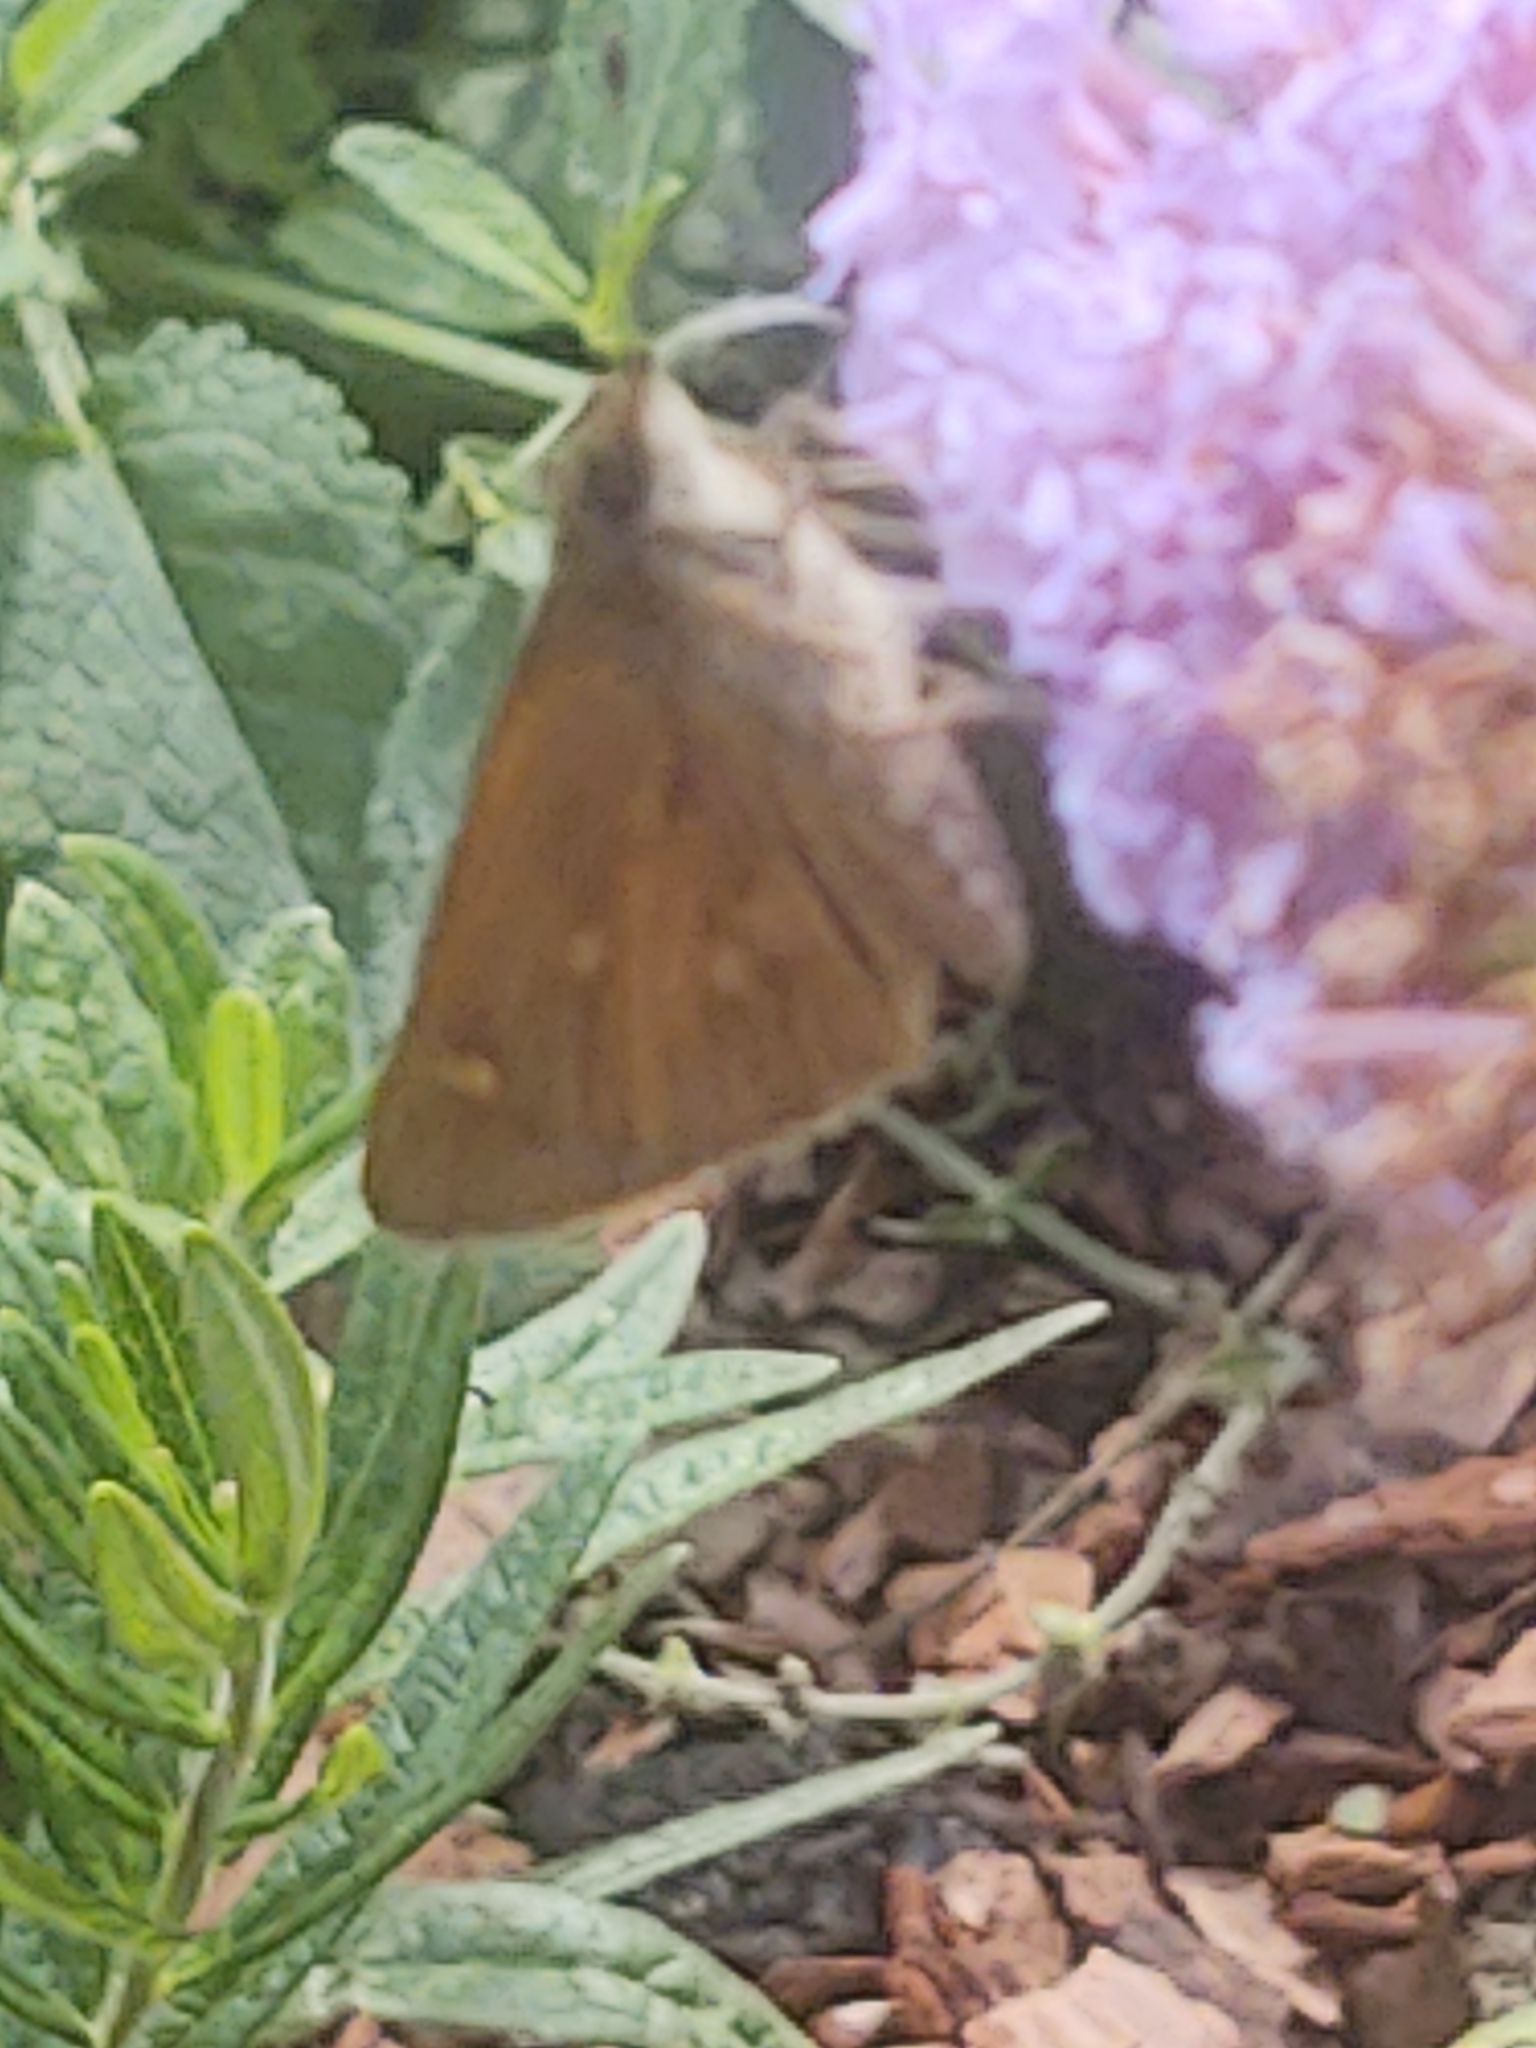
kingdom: Animalia
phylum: Arthropoda
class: Insecta
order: Lepidoptera
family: Hesperiidae
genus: Poanes
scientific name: Poanes viator
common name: Broad-winged skipper
